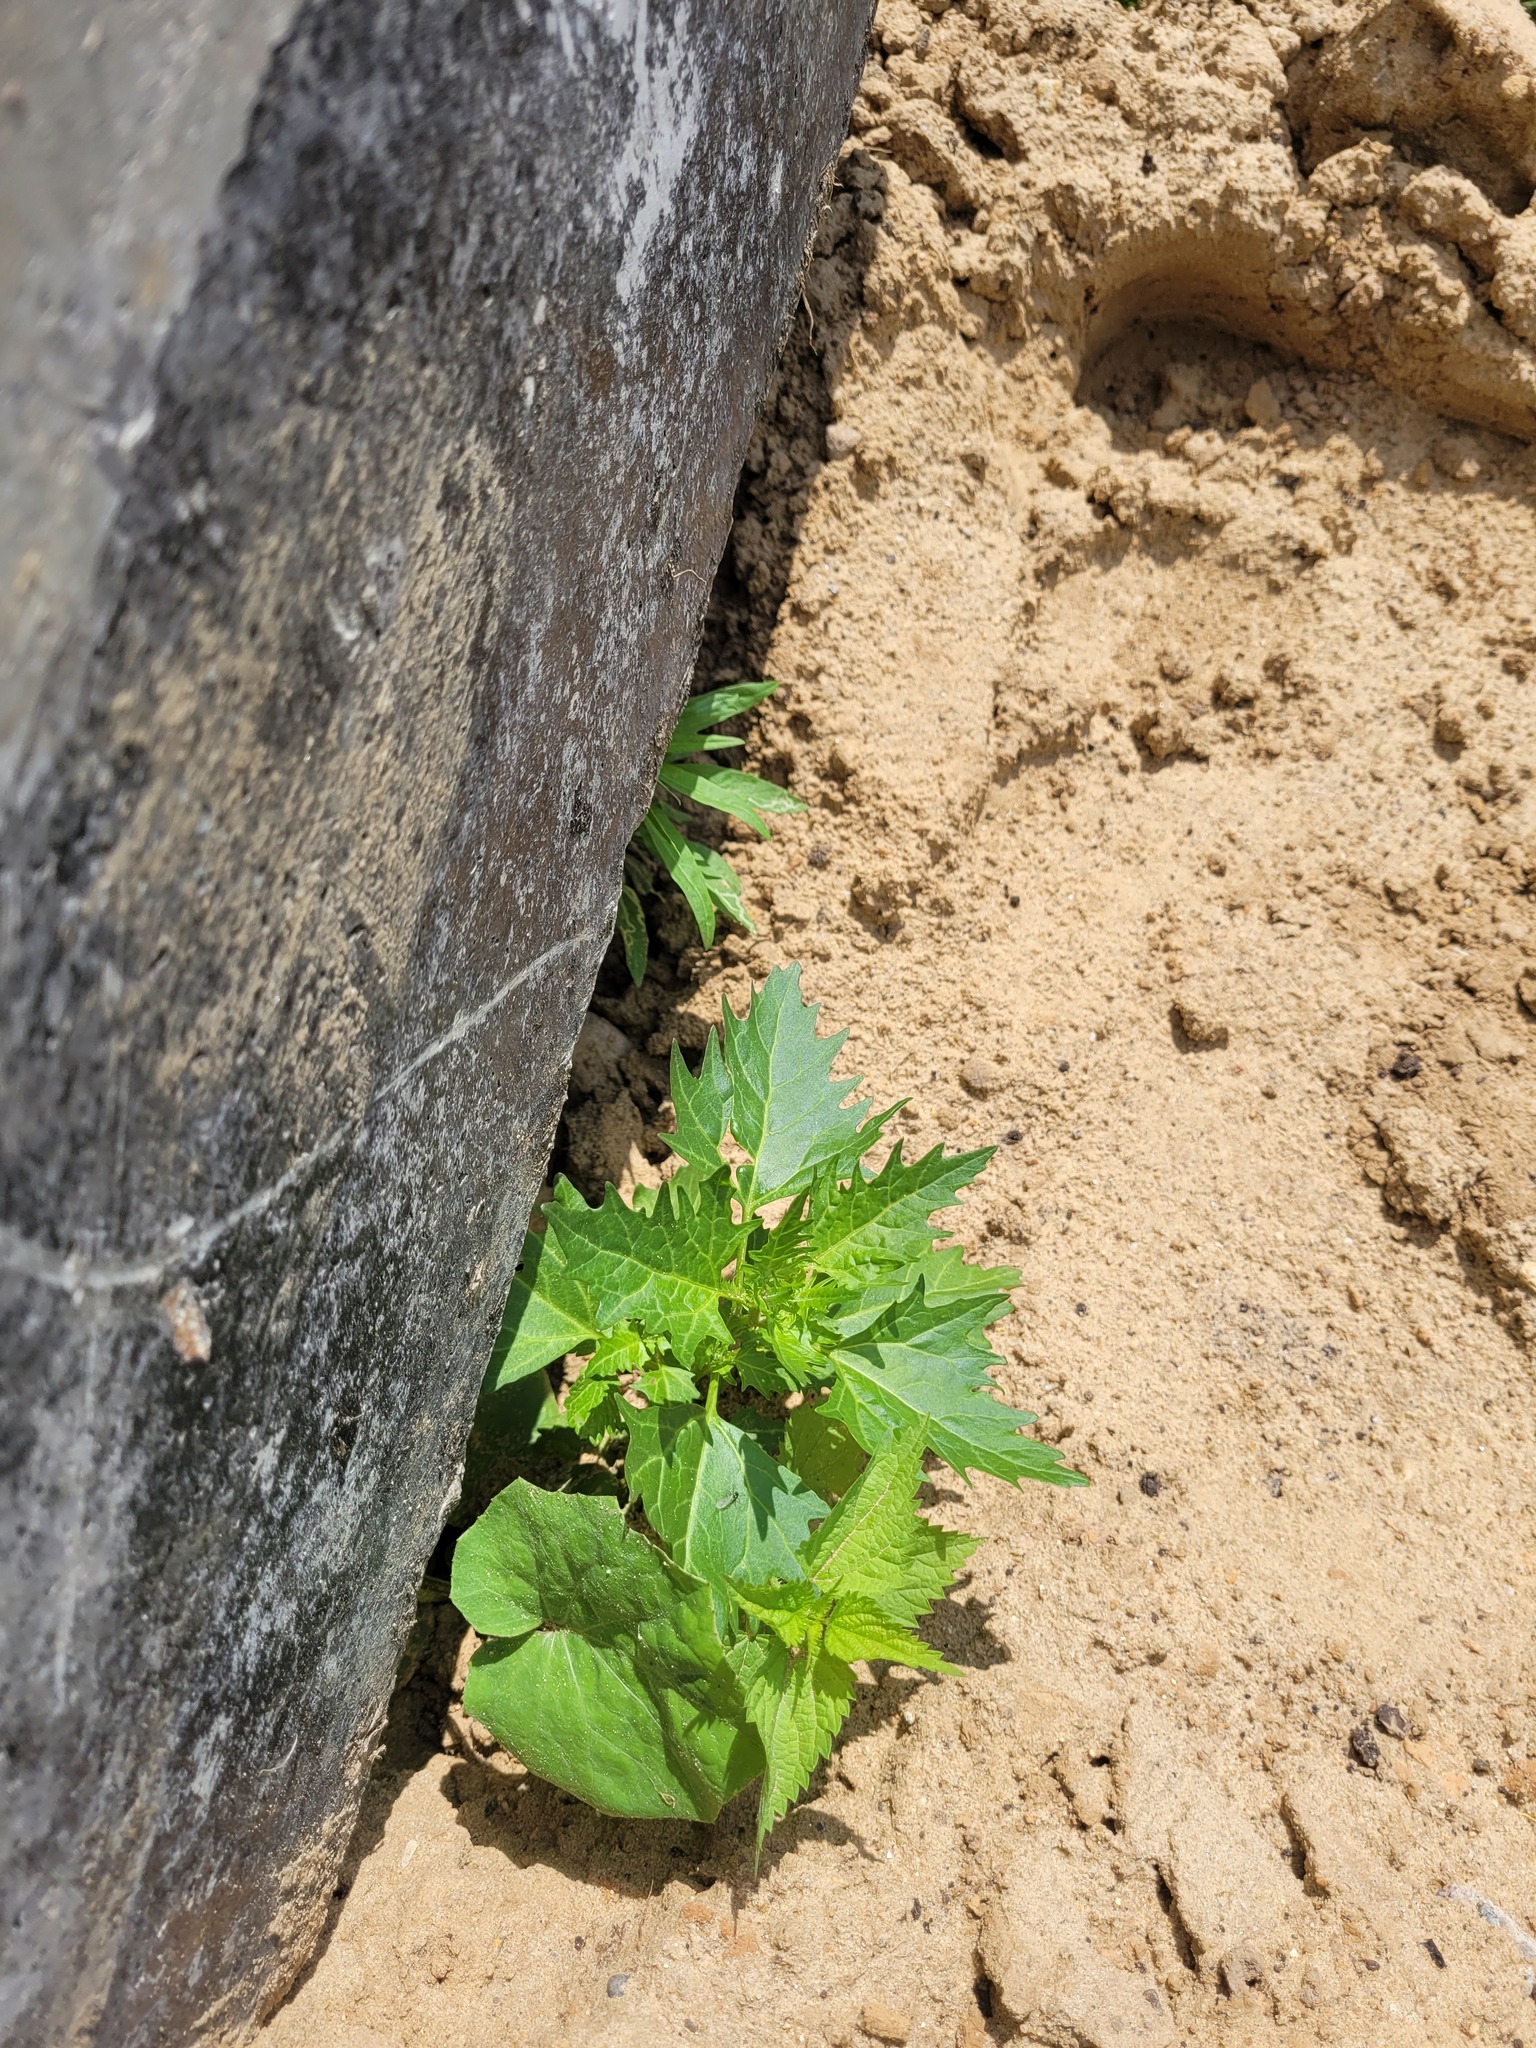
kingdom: Plantae
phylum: Tracheophyta
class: Magnoliopsida
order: Caryophyllales
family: Amaranthaceae
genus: Oxybasis
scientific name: Oxybasis rubra
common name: Red goosefoot
